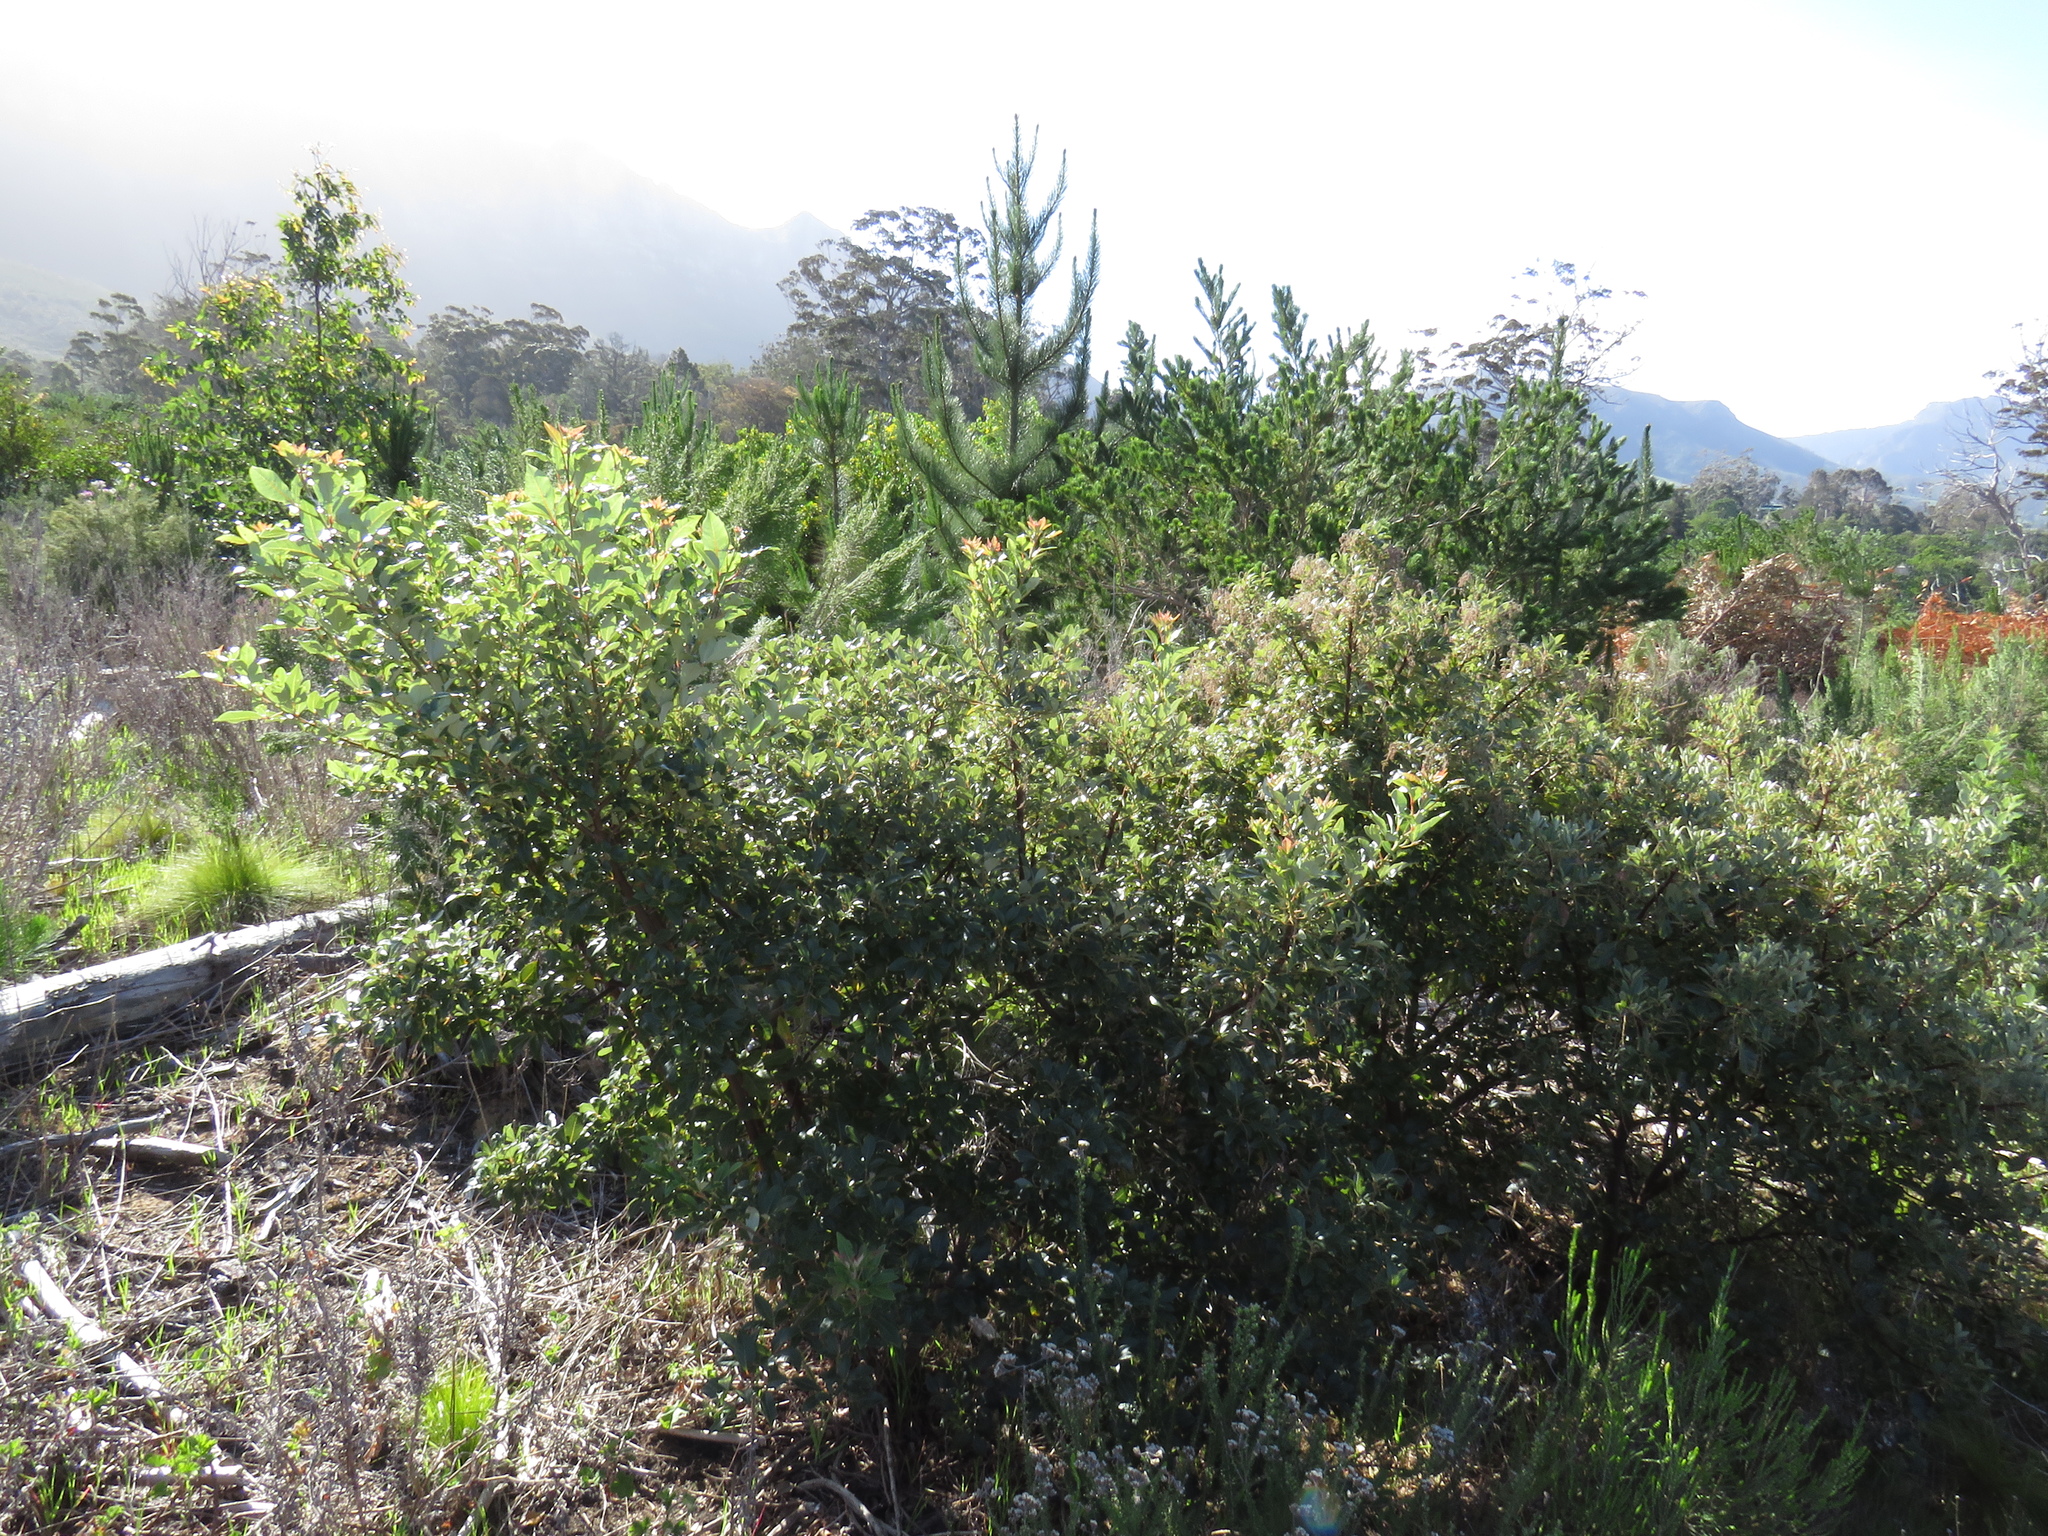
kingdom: Plantae
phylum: Tracheophyta
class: Magnoliopsida
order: Sapindales
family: Anacardiaceae
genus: Searsia
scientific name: Searsia tomentosa
